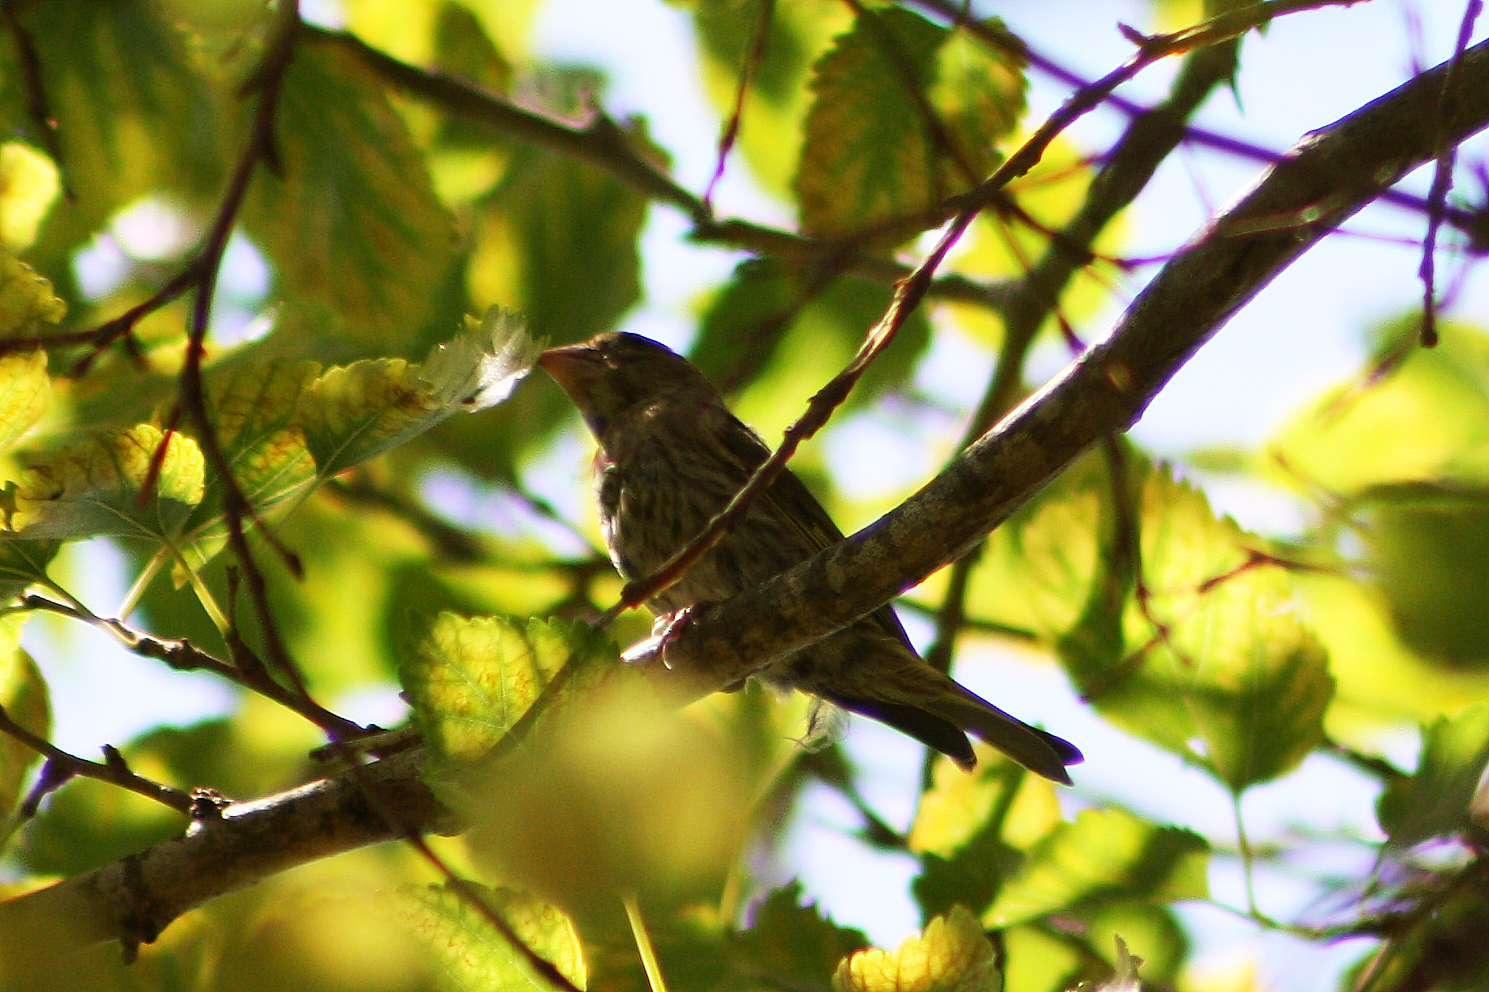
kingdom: Plantae
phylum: Tracheophyta
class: Liliopsida
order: Poales
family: Poaceae
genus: Chloris
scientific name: Chloris chloris
